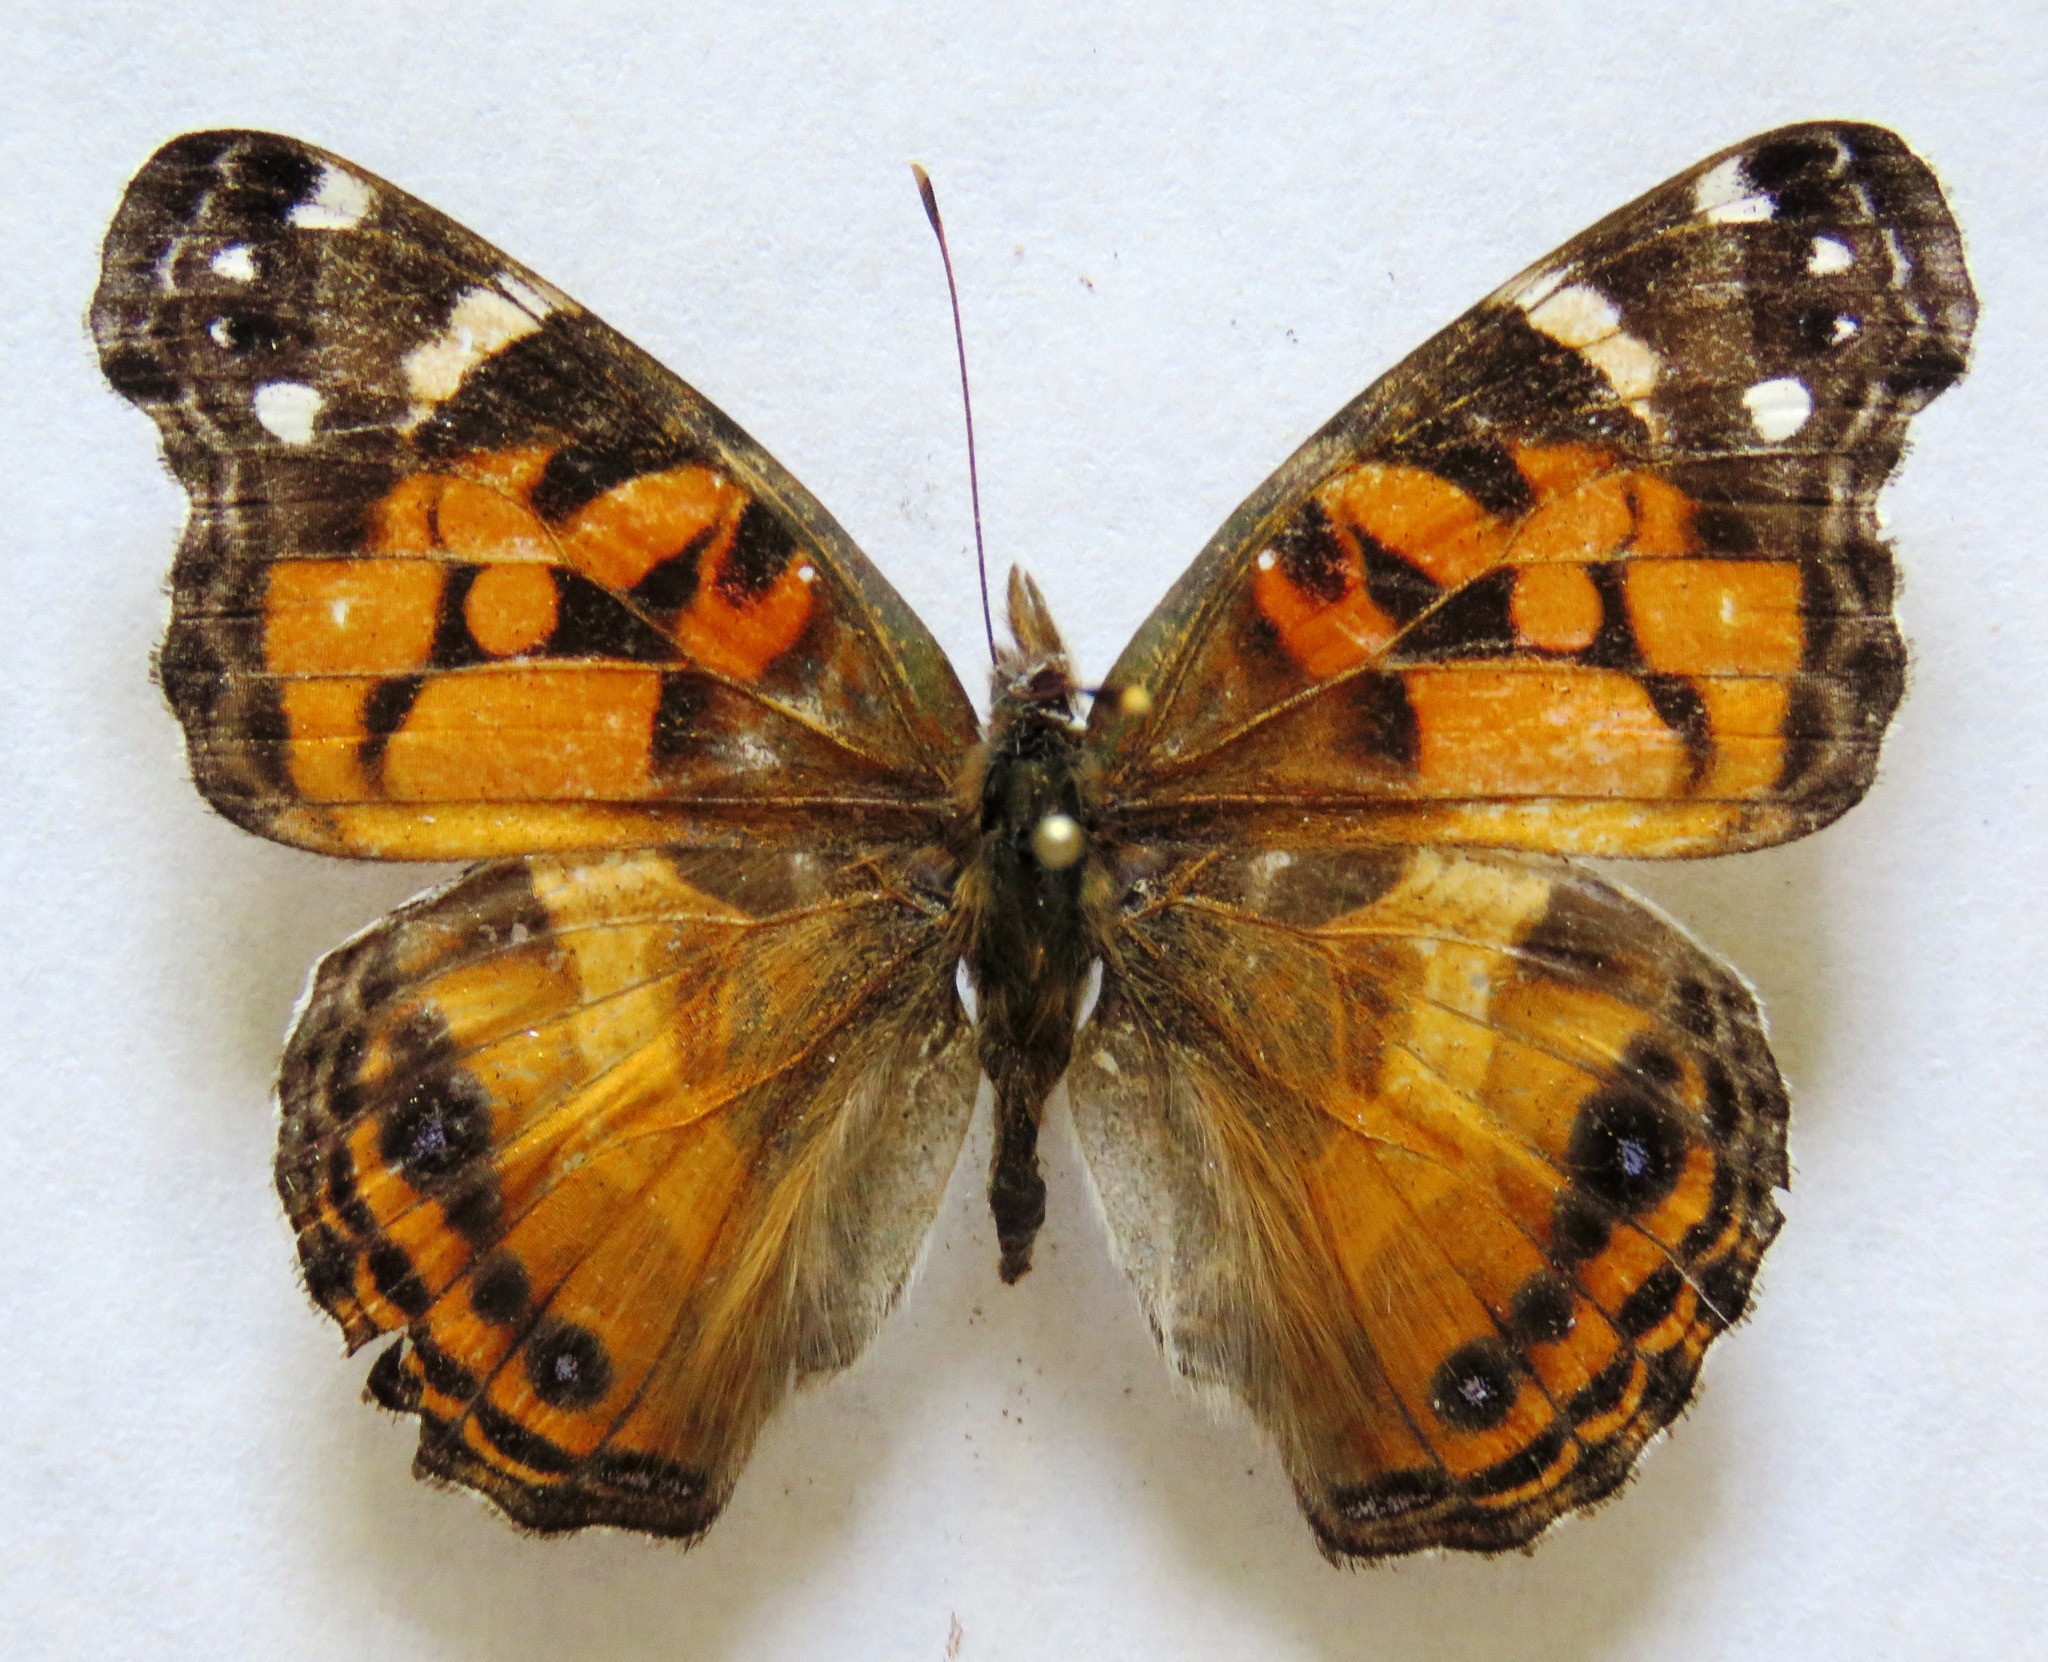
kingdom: Animalia
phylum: Arthropoda
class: Insecta
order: Lepidoptera
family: Nymphalidae
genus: Vanessa
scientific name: Vanessa virginiensis
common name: American lady
